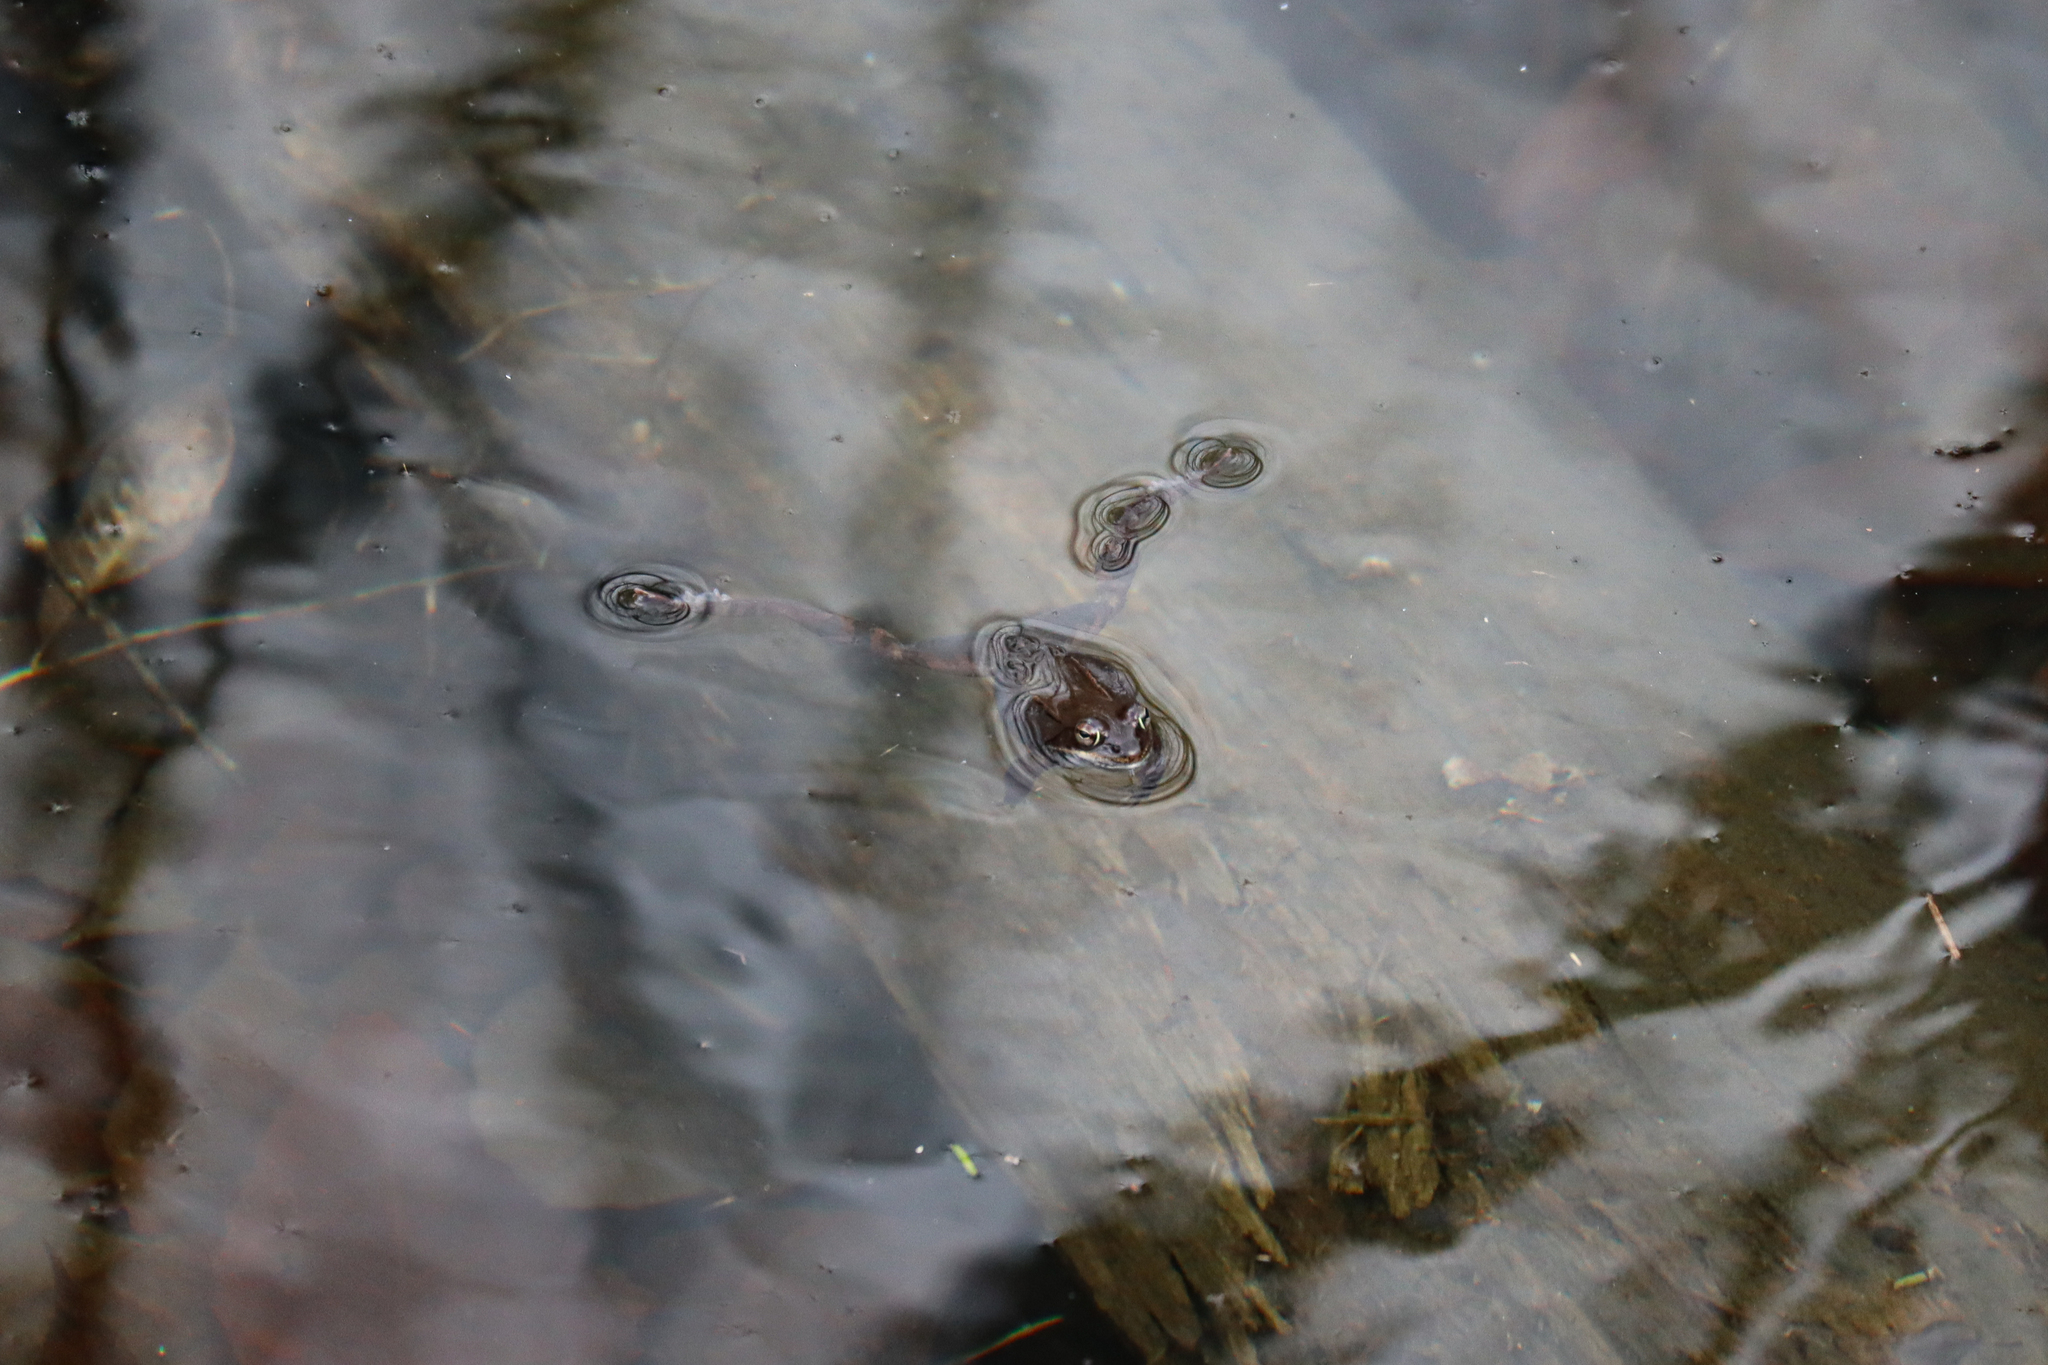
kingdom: Animalia
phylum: Chordata
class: Amphibia
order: Anura
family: Ranidae
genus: Lithobates
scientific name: Lithobates sylvaticus
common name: Wood frog
